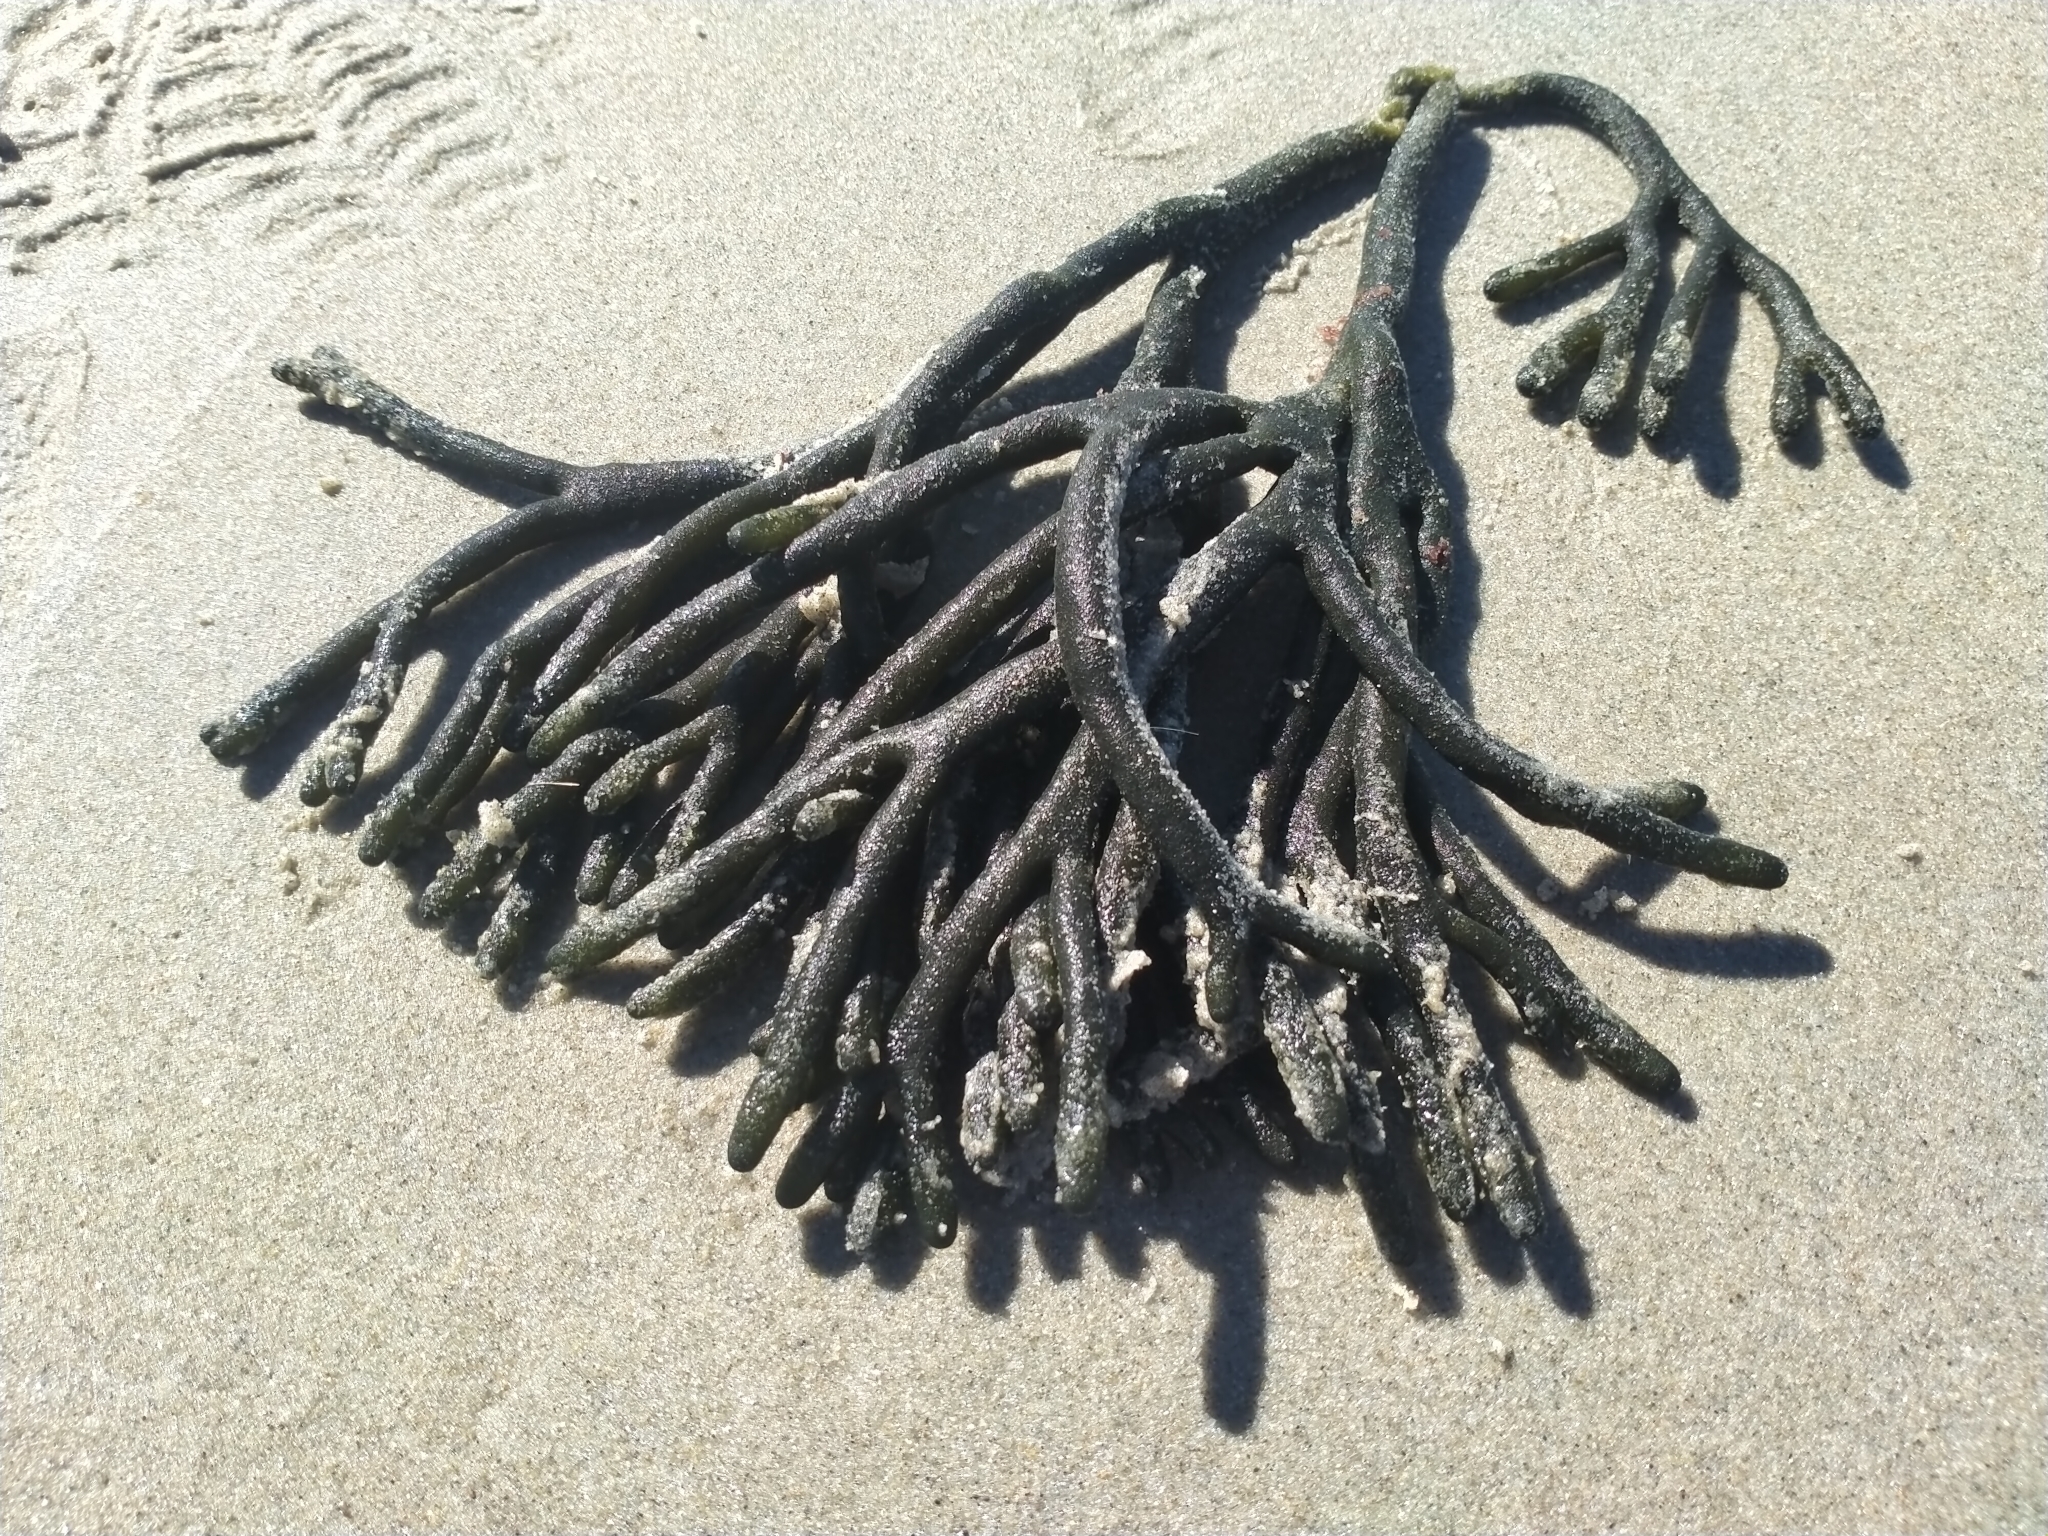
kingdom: Plantae
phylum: Chlorophyta
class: Ulvophyceae
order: Bryopsidales
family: Codiaceae
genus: Codium
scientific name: Codium fragile
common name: Dead man's fingers
